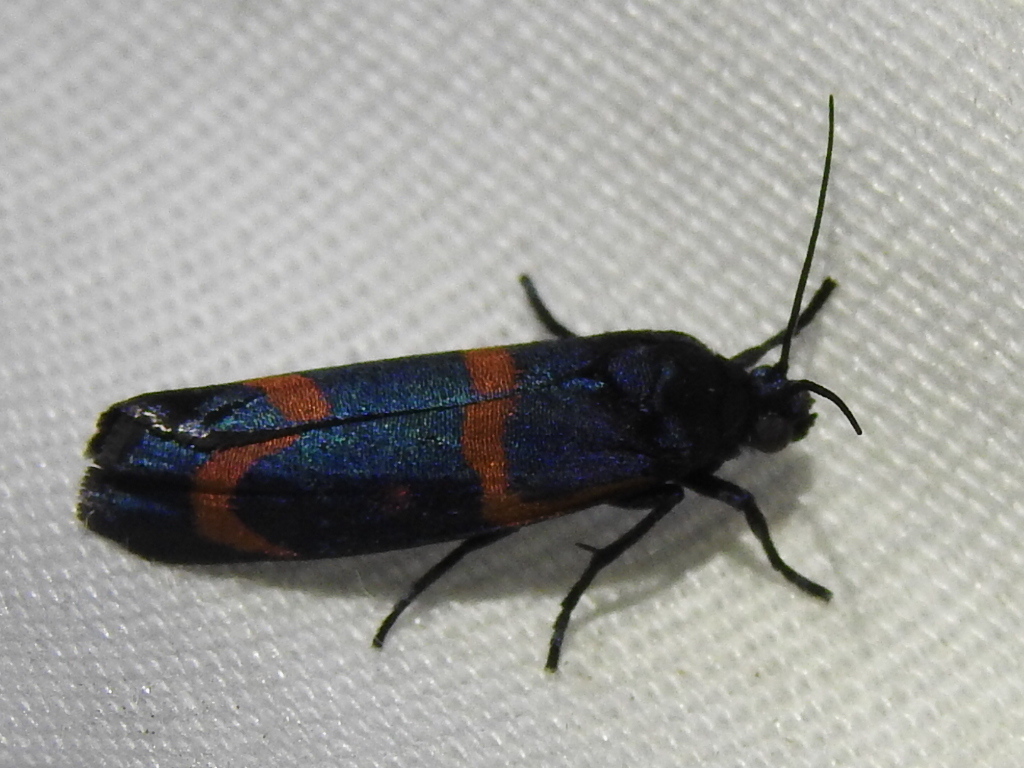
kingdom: Animalia
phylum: Arthropoda
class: Insecta
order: Lepidoptera
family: Noctuidae
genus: Cydosia
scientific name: Cydosia aurivitta
